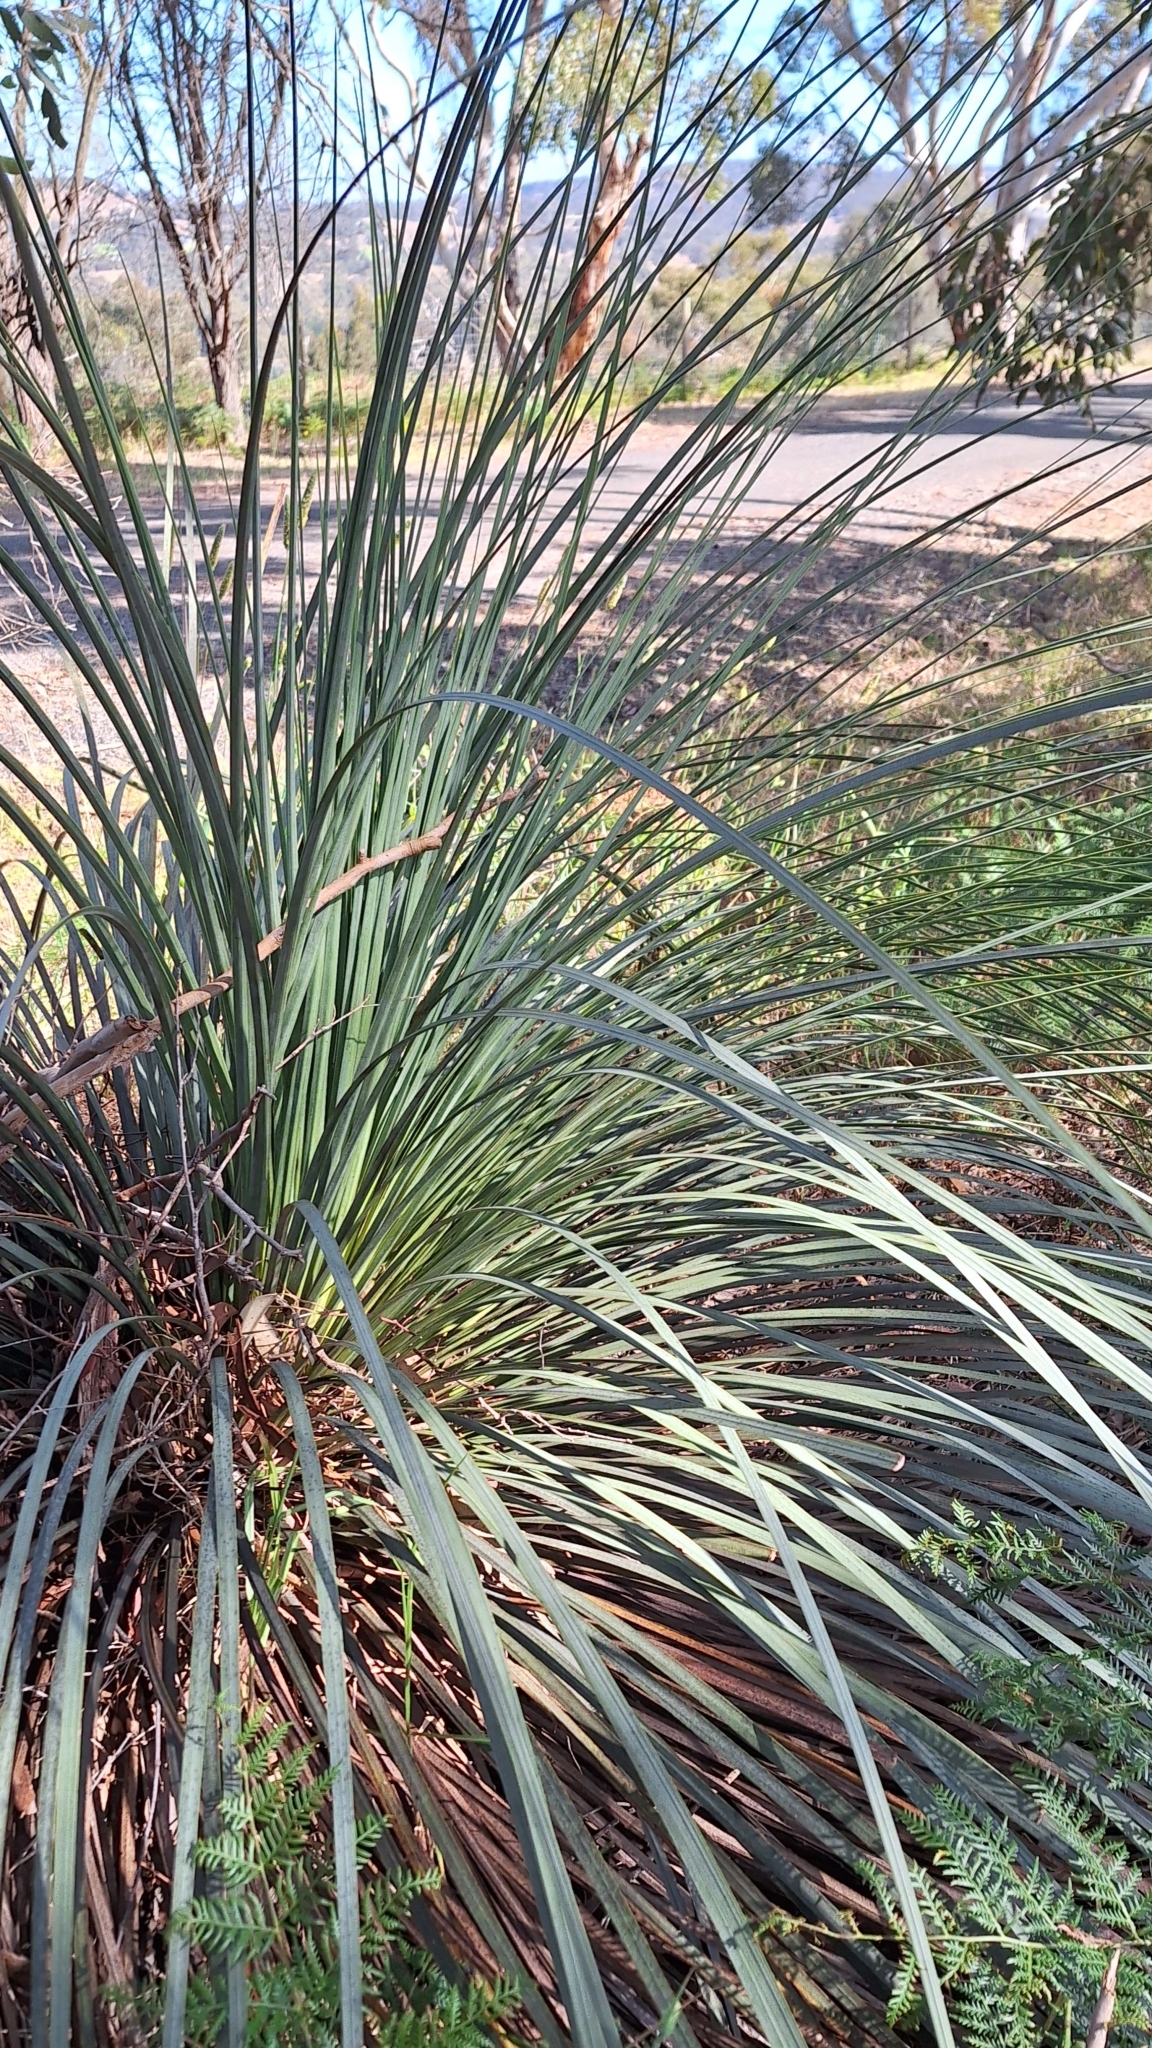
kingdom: Plantae
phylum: Tracheophyta
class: Liliopsida
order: Asparagales
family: Asphodelaceae
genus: Xanthorrhoea
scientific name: Xanthorrhoea semiplana
